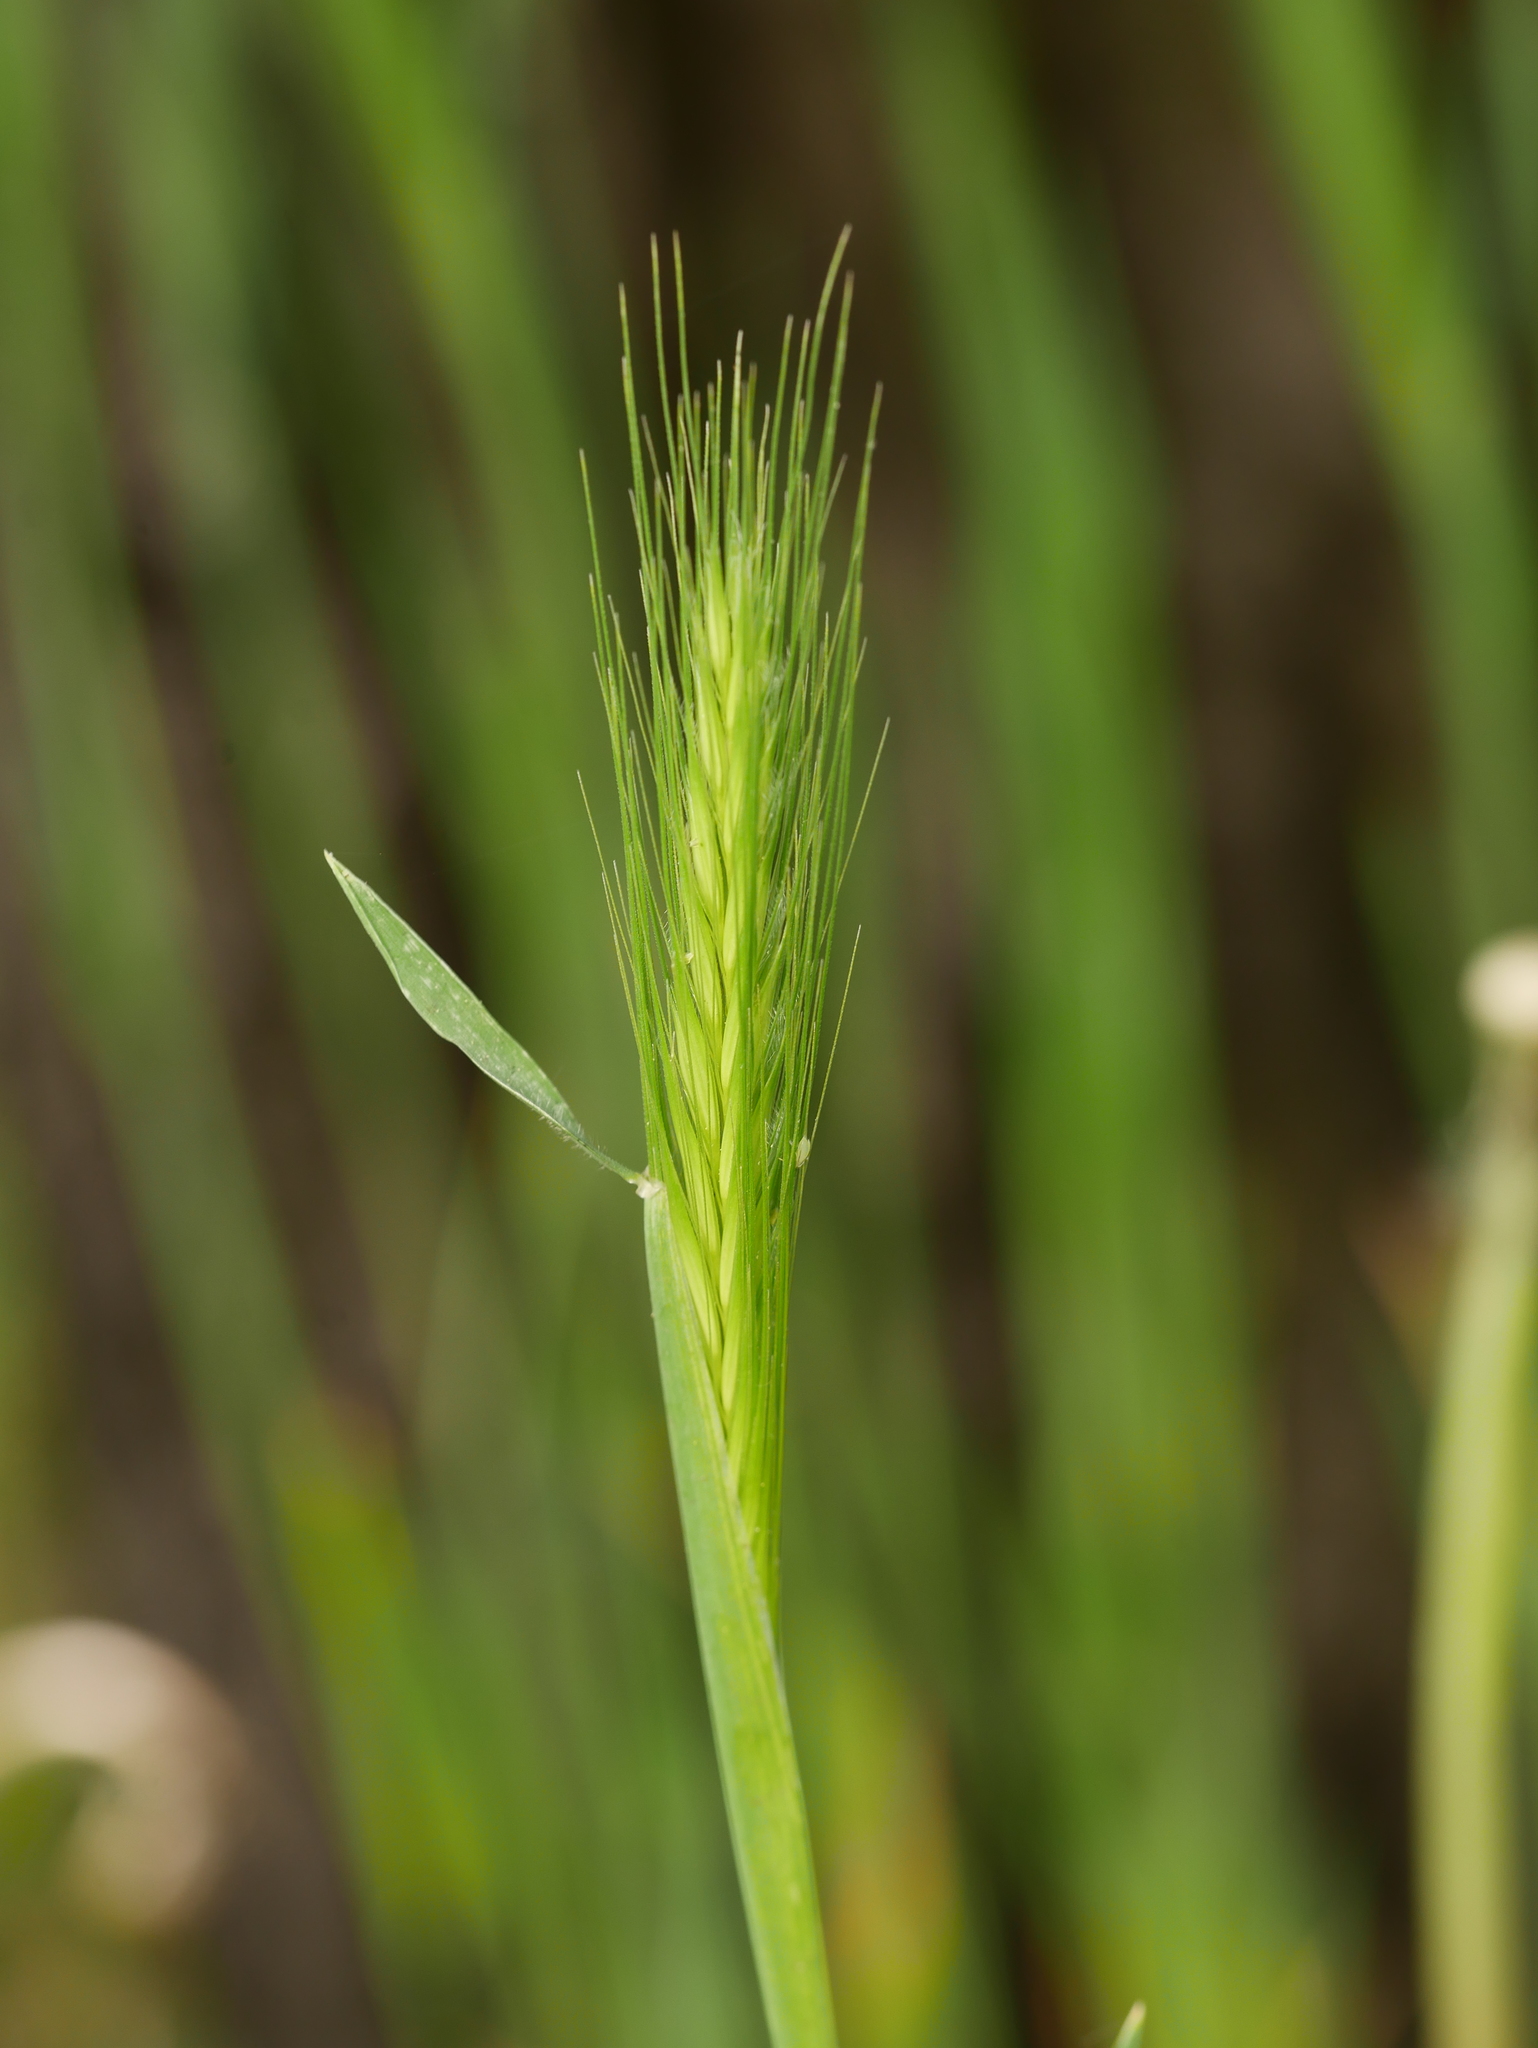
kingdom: Plantae
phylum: Tracheophyta
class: Liliopsida
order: Poales
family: Poaceae
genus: Hordeum
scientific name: Hordeum murinum
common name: Wall barley
